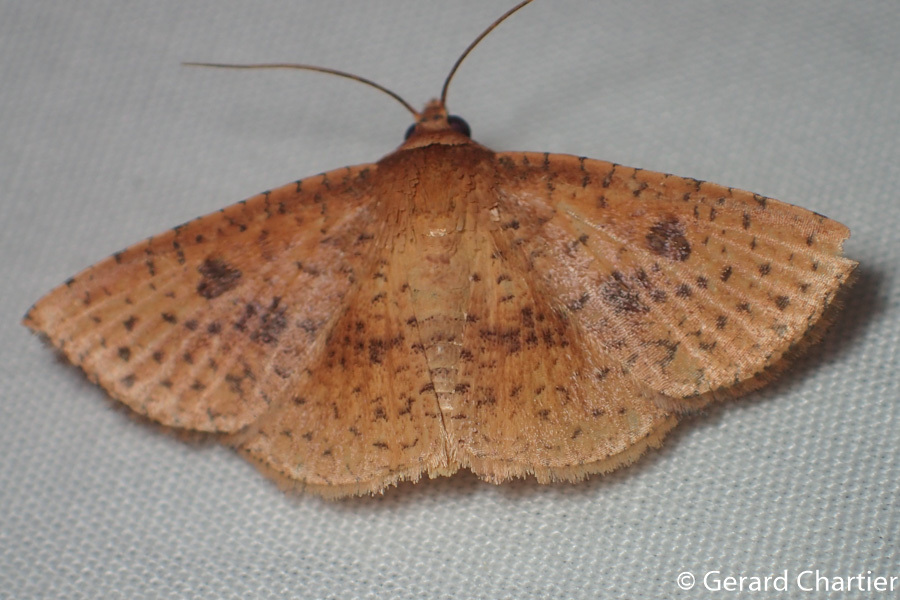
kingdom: Animalia
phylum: Arthropoda
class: Insecta
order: Lepidoptera
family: Thyrididae
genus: Striglina
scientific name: Striglina duplicifimbria
